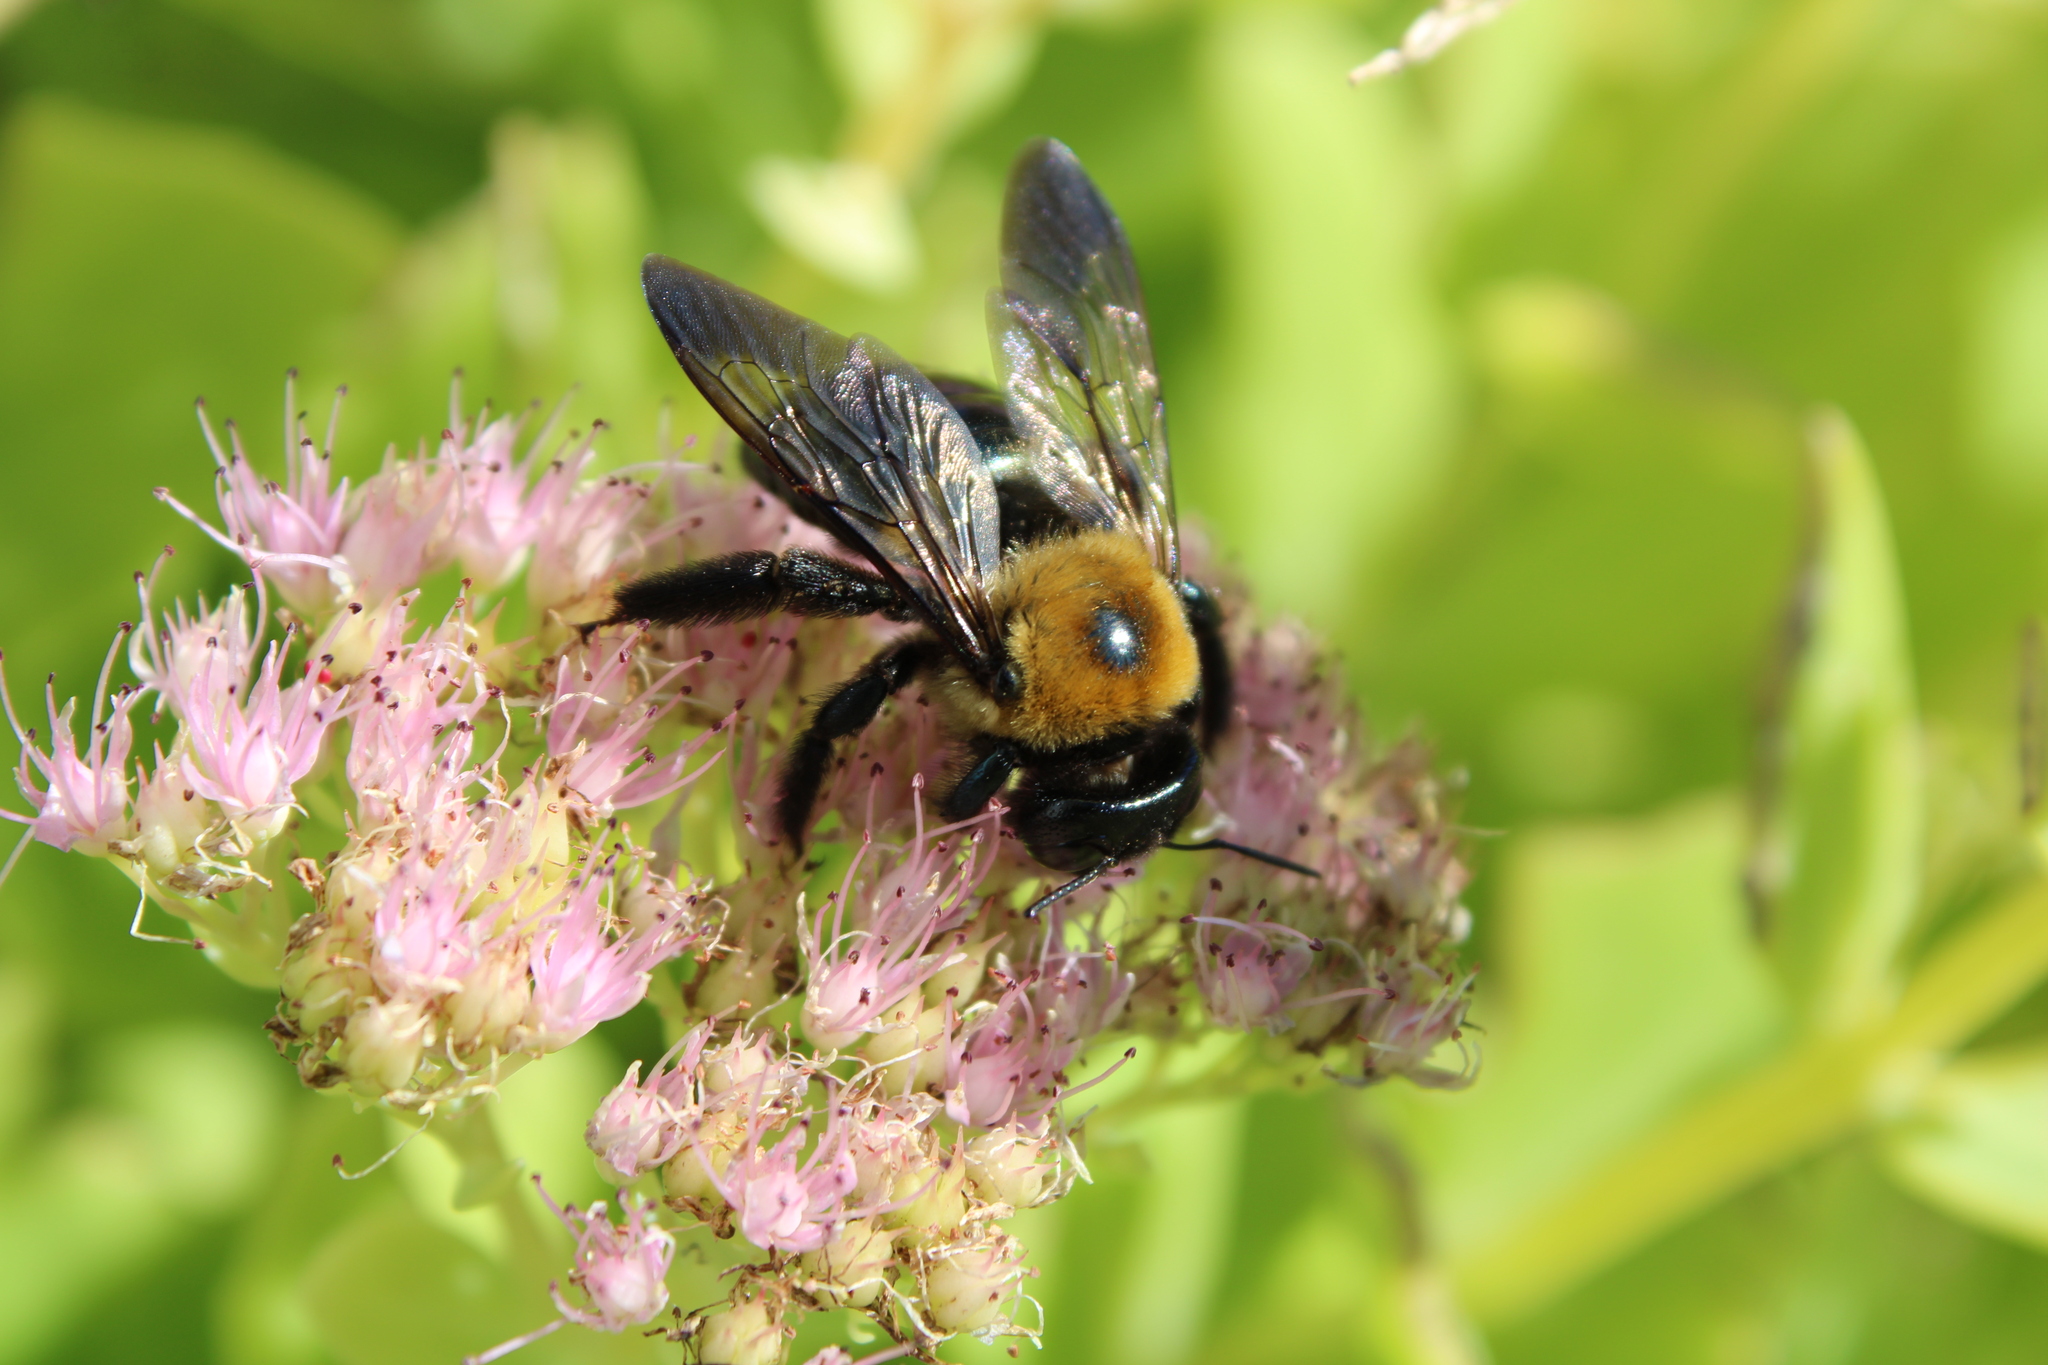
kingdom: Animalia
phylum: Arthropoda
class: Insecta
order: Hymenoptera
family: Apidae
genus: Xylocopa
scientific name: Xylocopa virginica
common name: Carpenter bee
